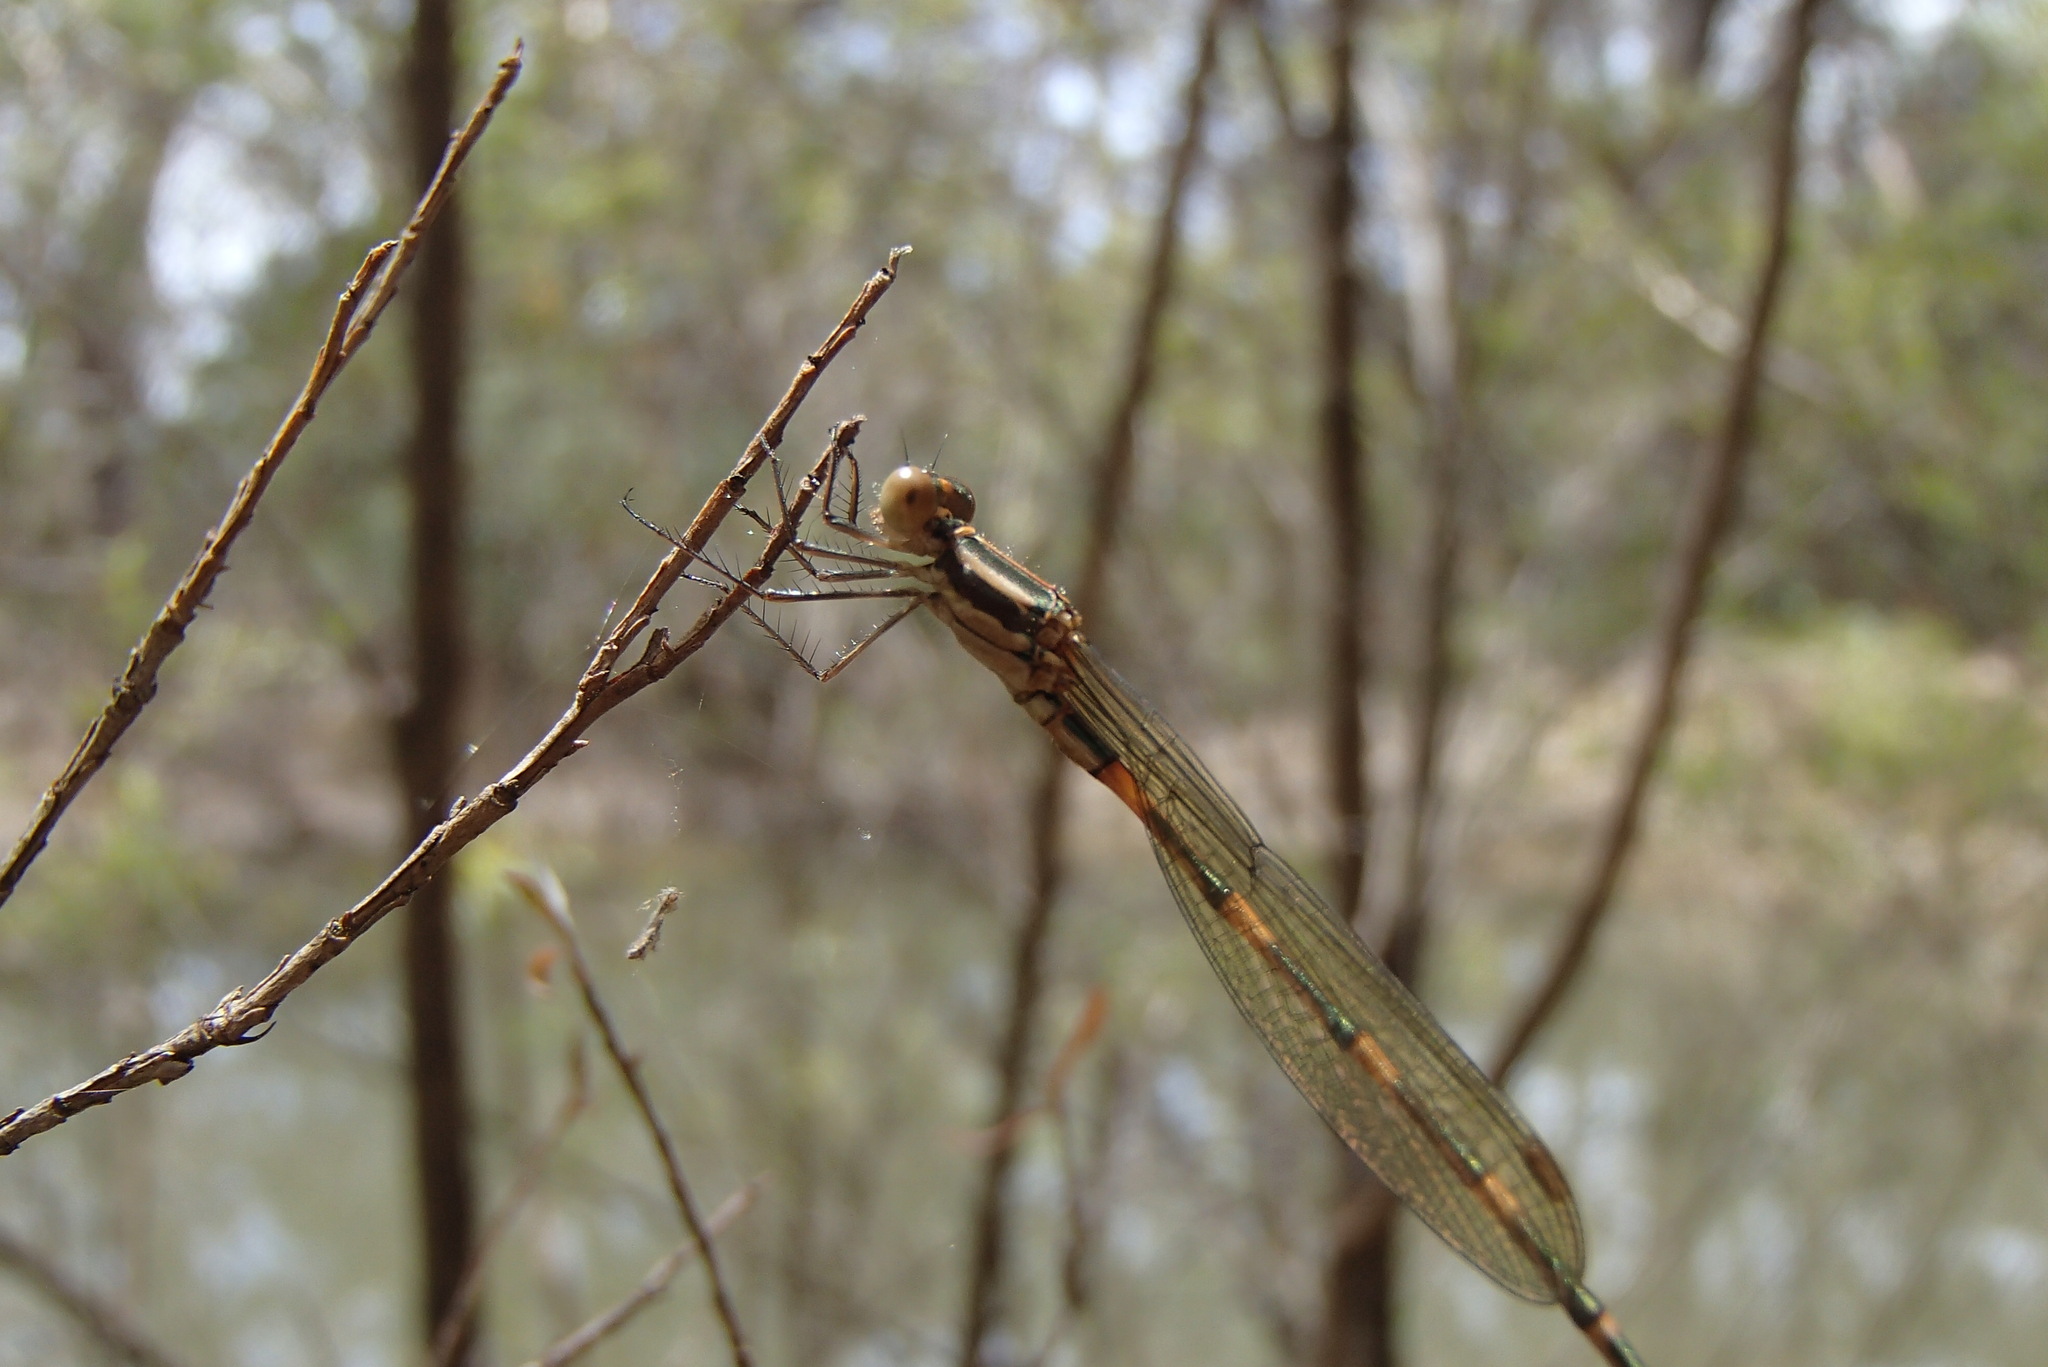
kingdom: Animalia
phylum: Arthropoda
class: Insecta
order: Odonata
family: Lestidae
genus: Austrolestes
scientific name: Austrolestes leda
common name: Wandering ringtail
